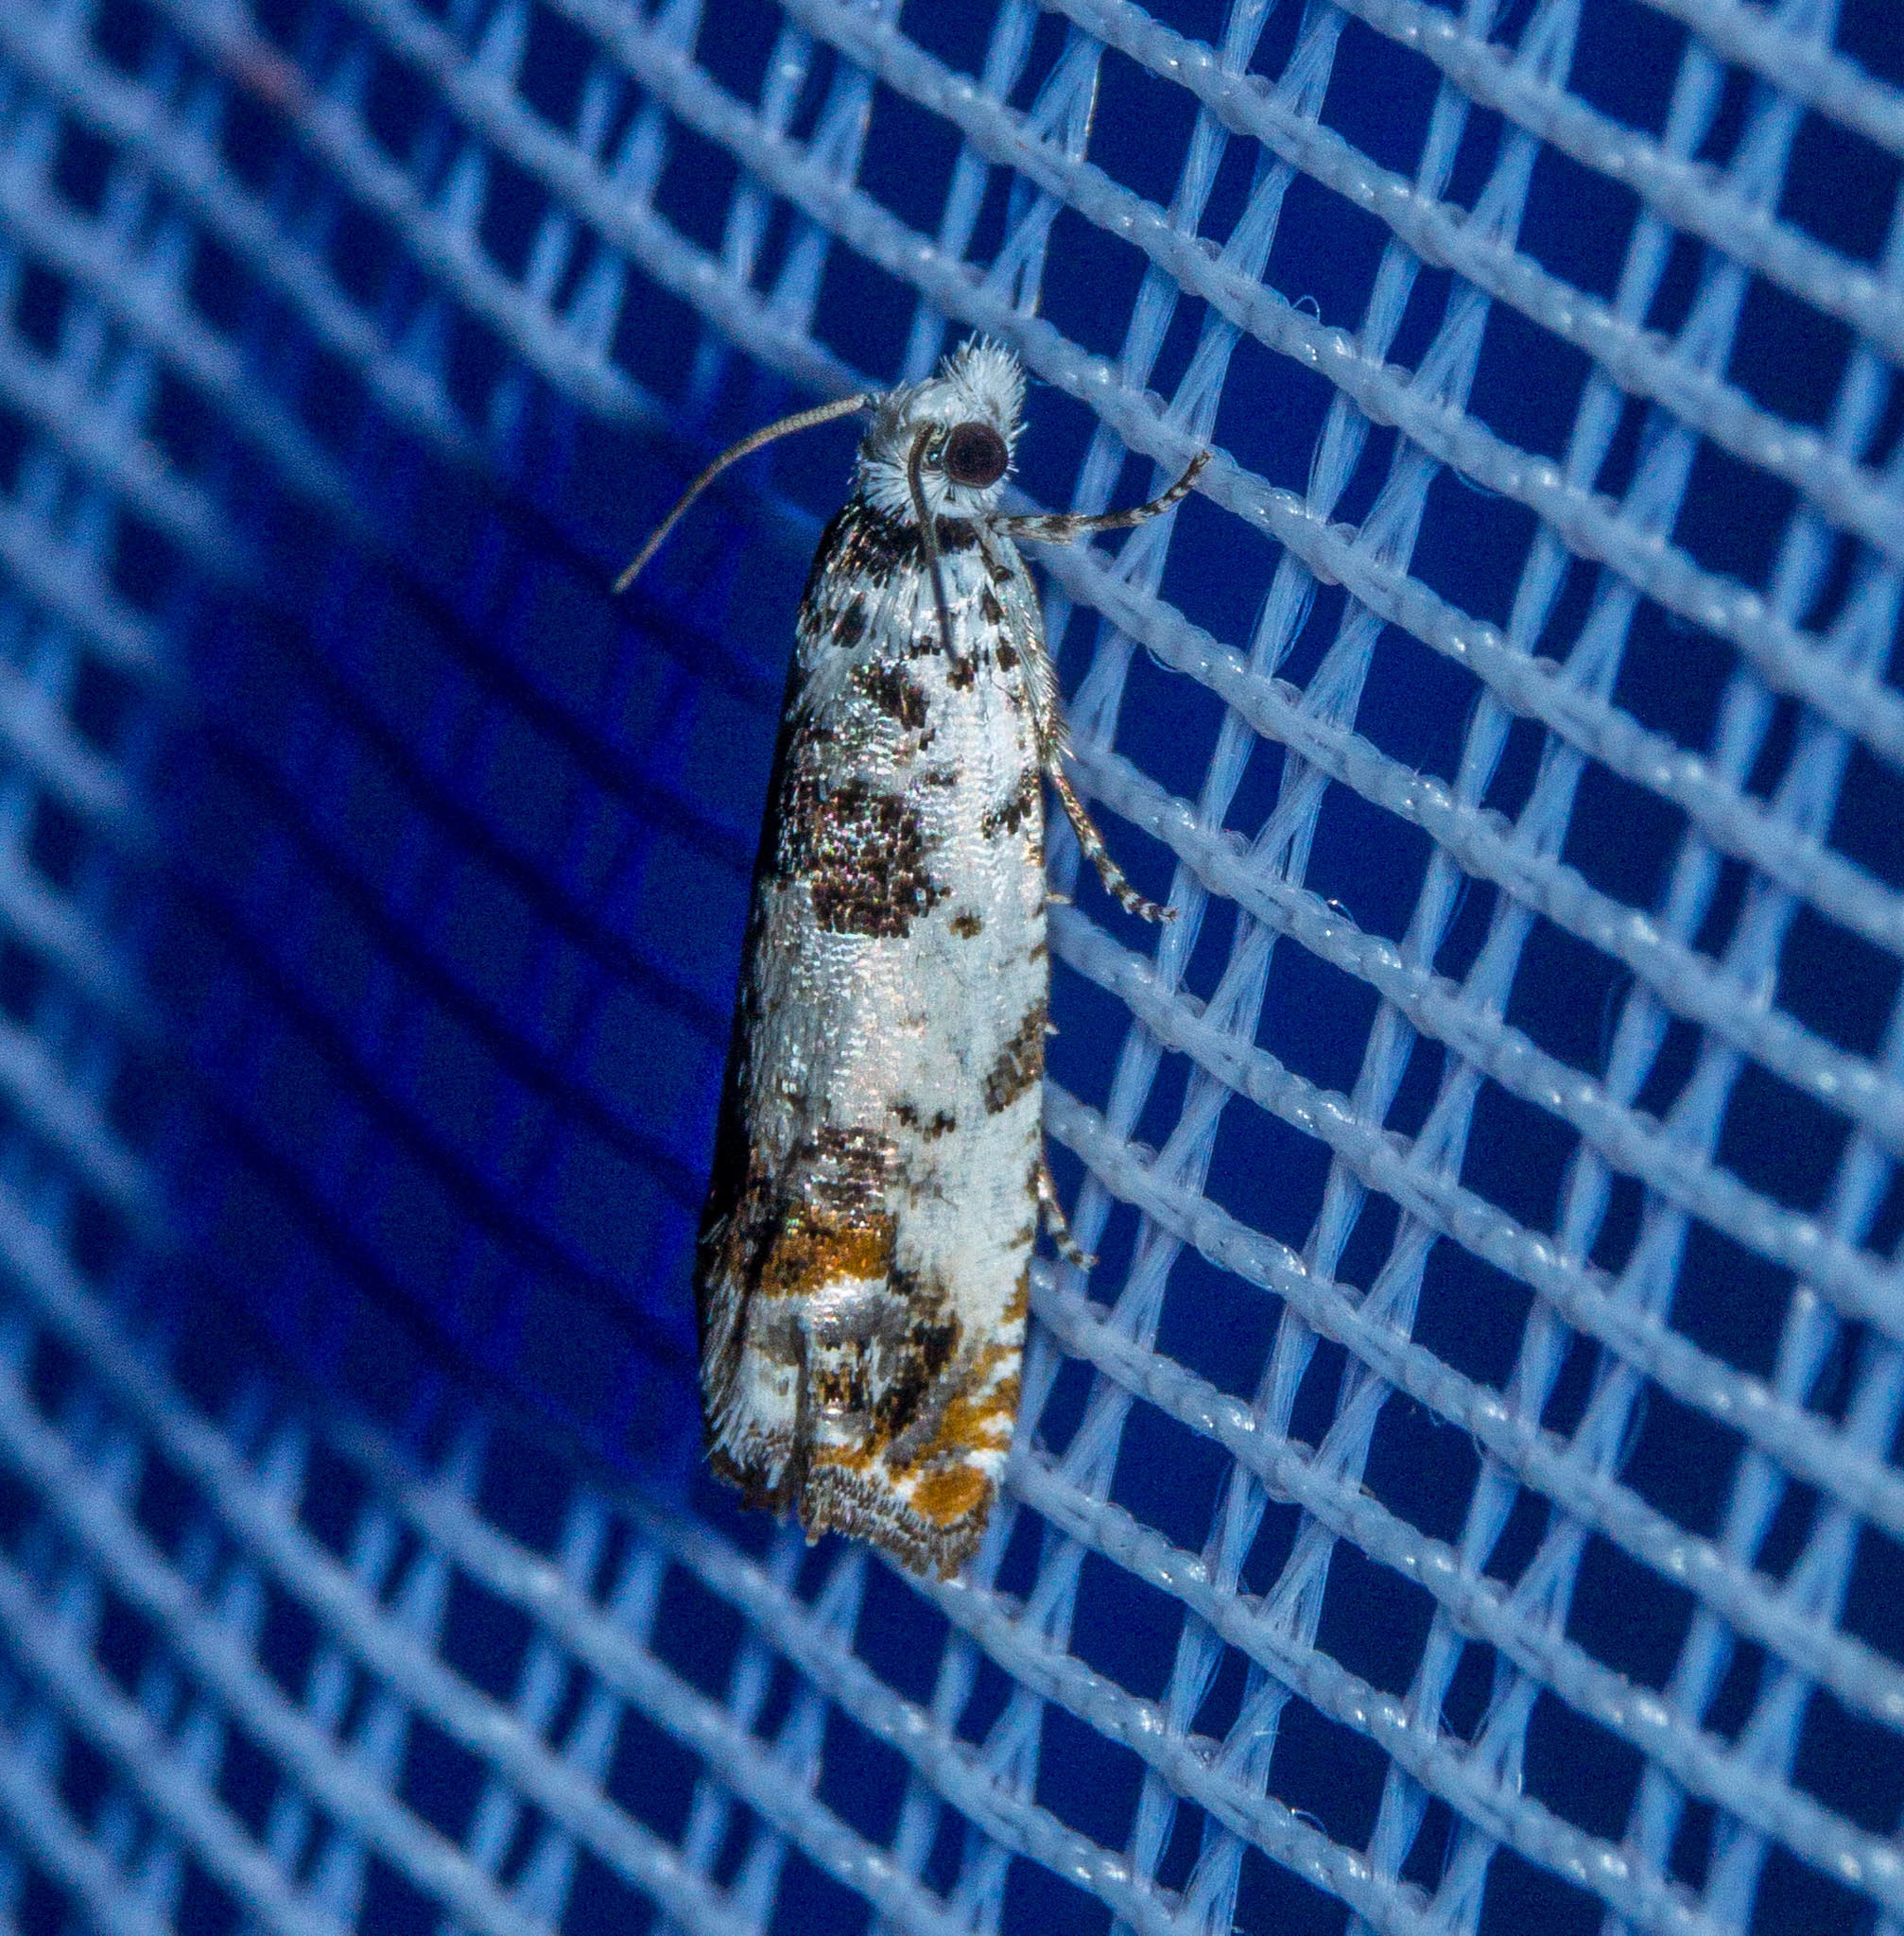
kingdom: Animalia
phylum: Arthropoda
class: Insecta
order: Lepidoptera
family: Tortricidae
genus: Eucosma
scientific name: Eucosma campoliliana
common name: Marbled bell
